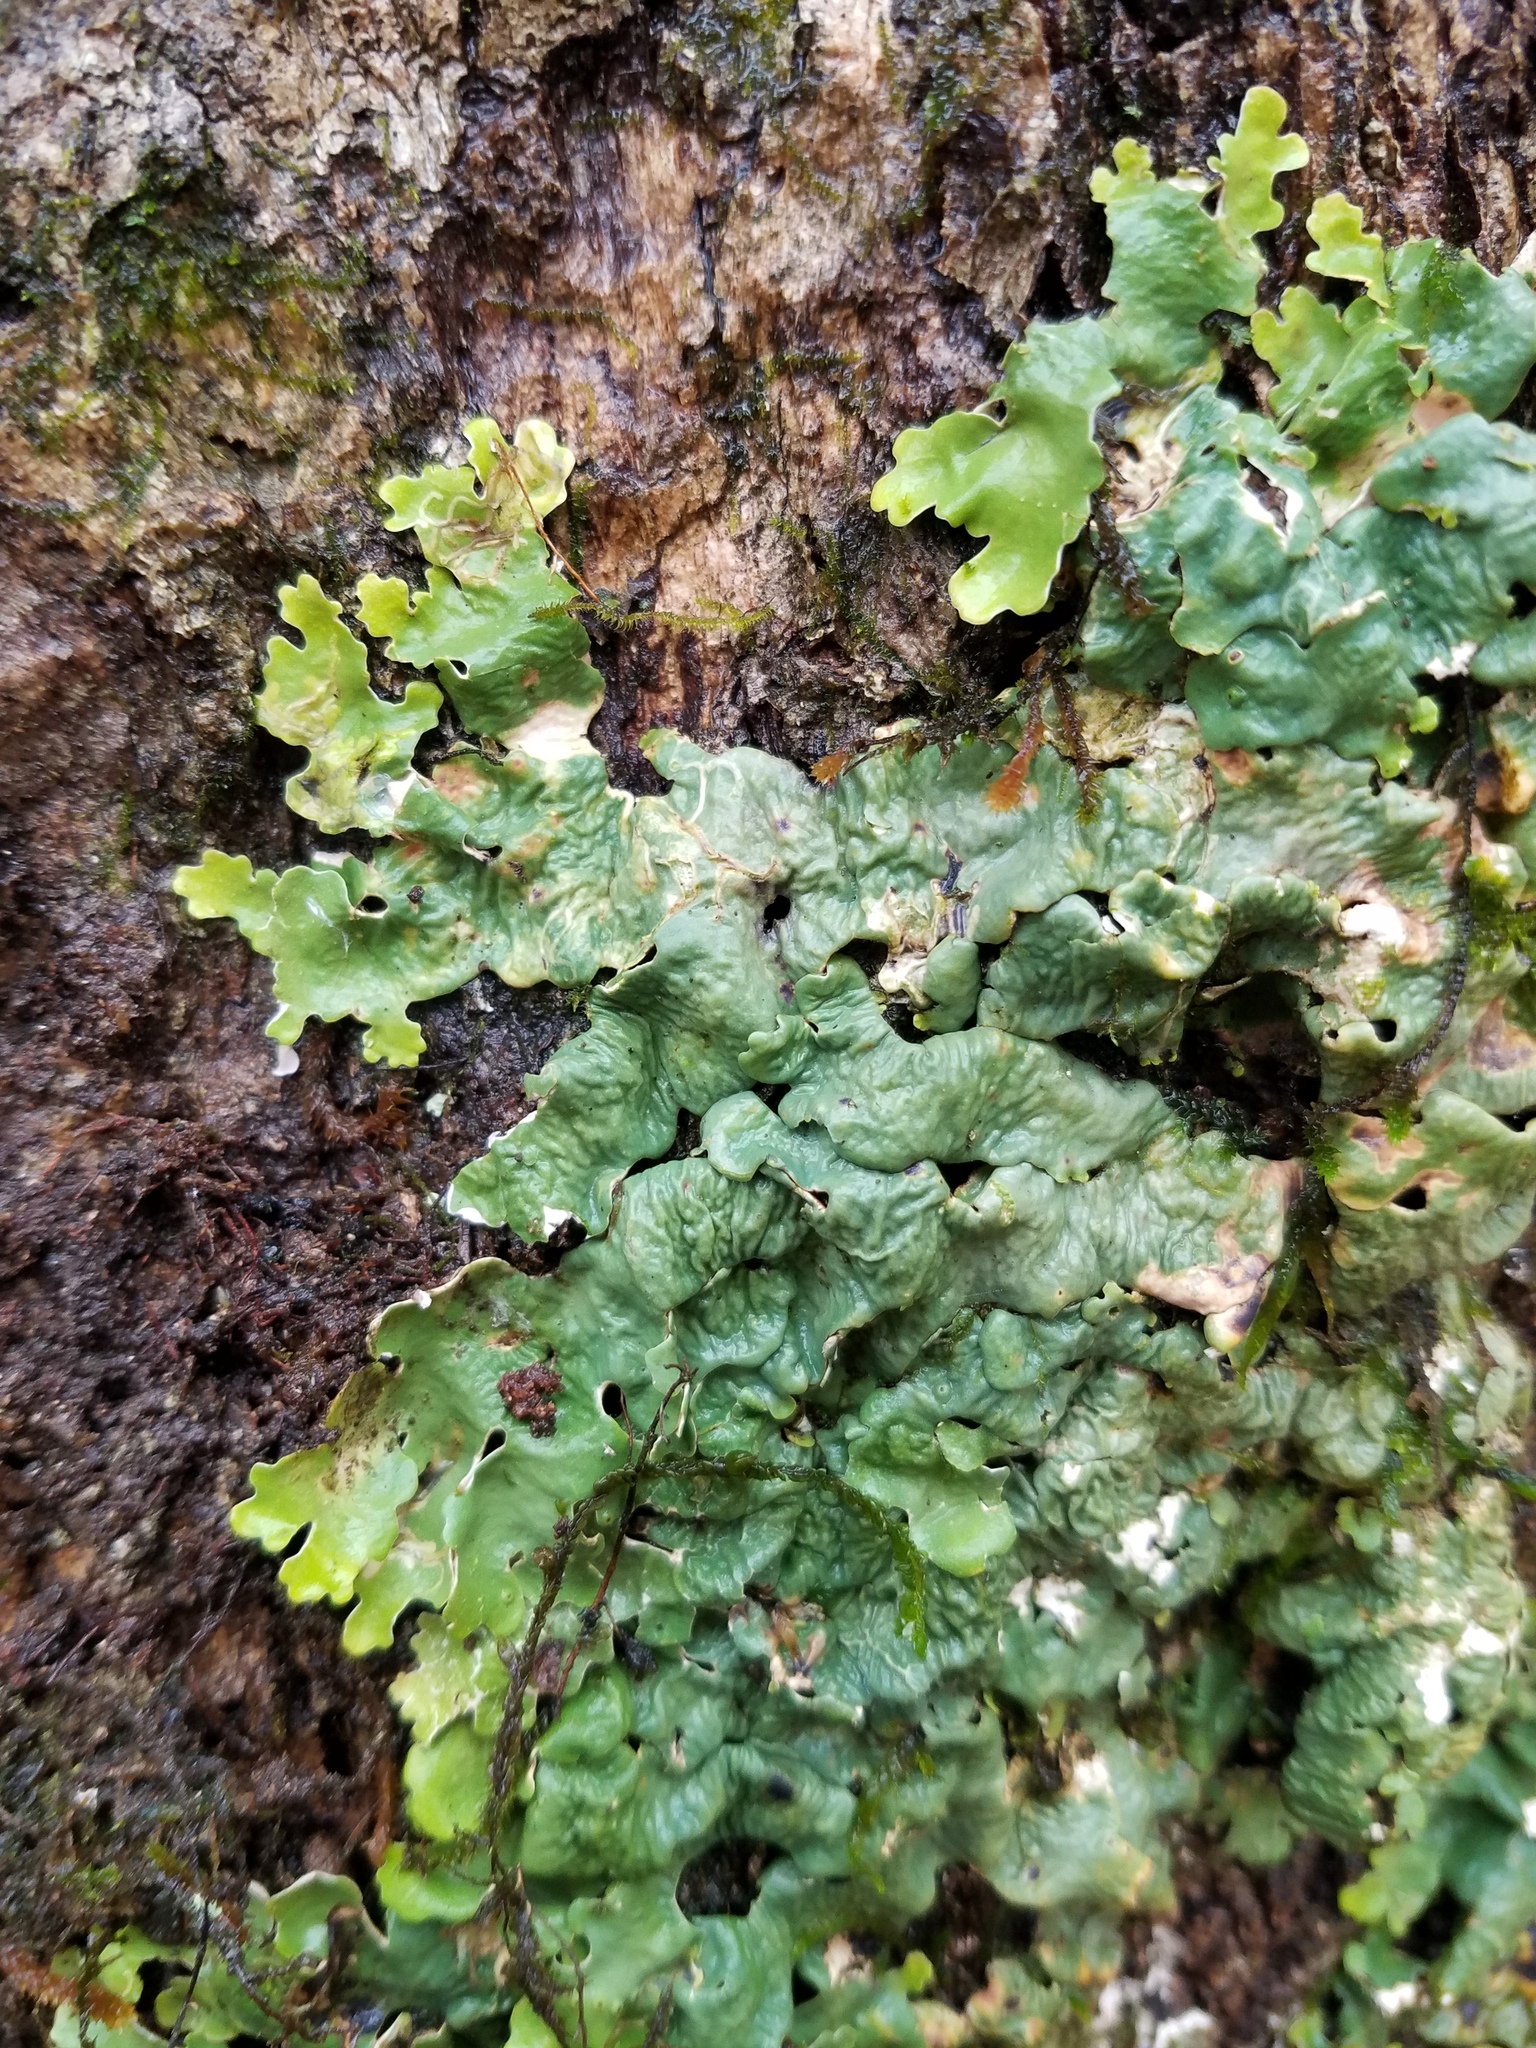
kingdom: Fungi
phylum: Ascomycota
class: Lecanoromycetes
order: Peltigerales
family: Lobariaceae
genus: Ricasolia
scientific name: Ricasolia quercizans
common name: Smooth lungwort
